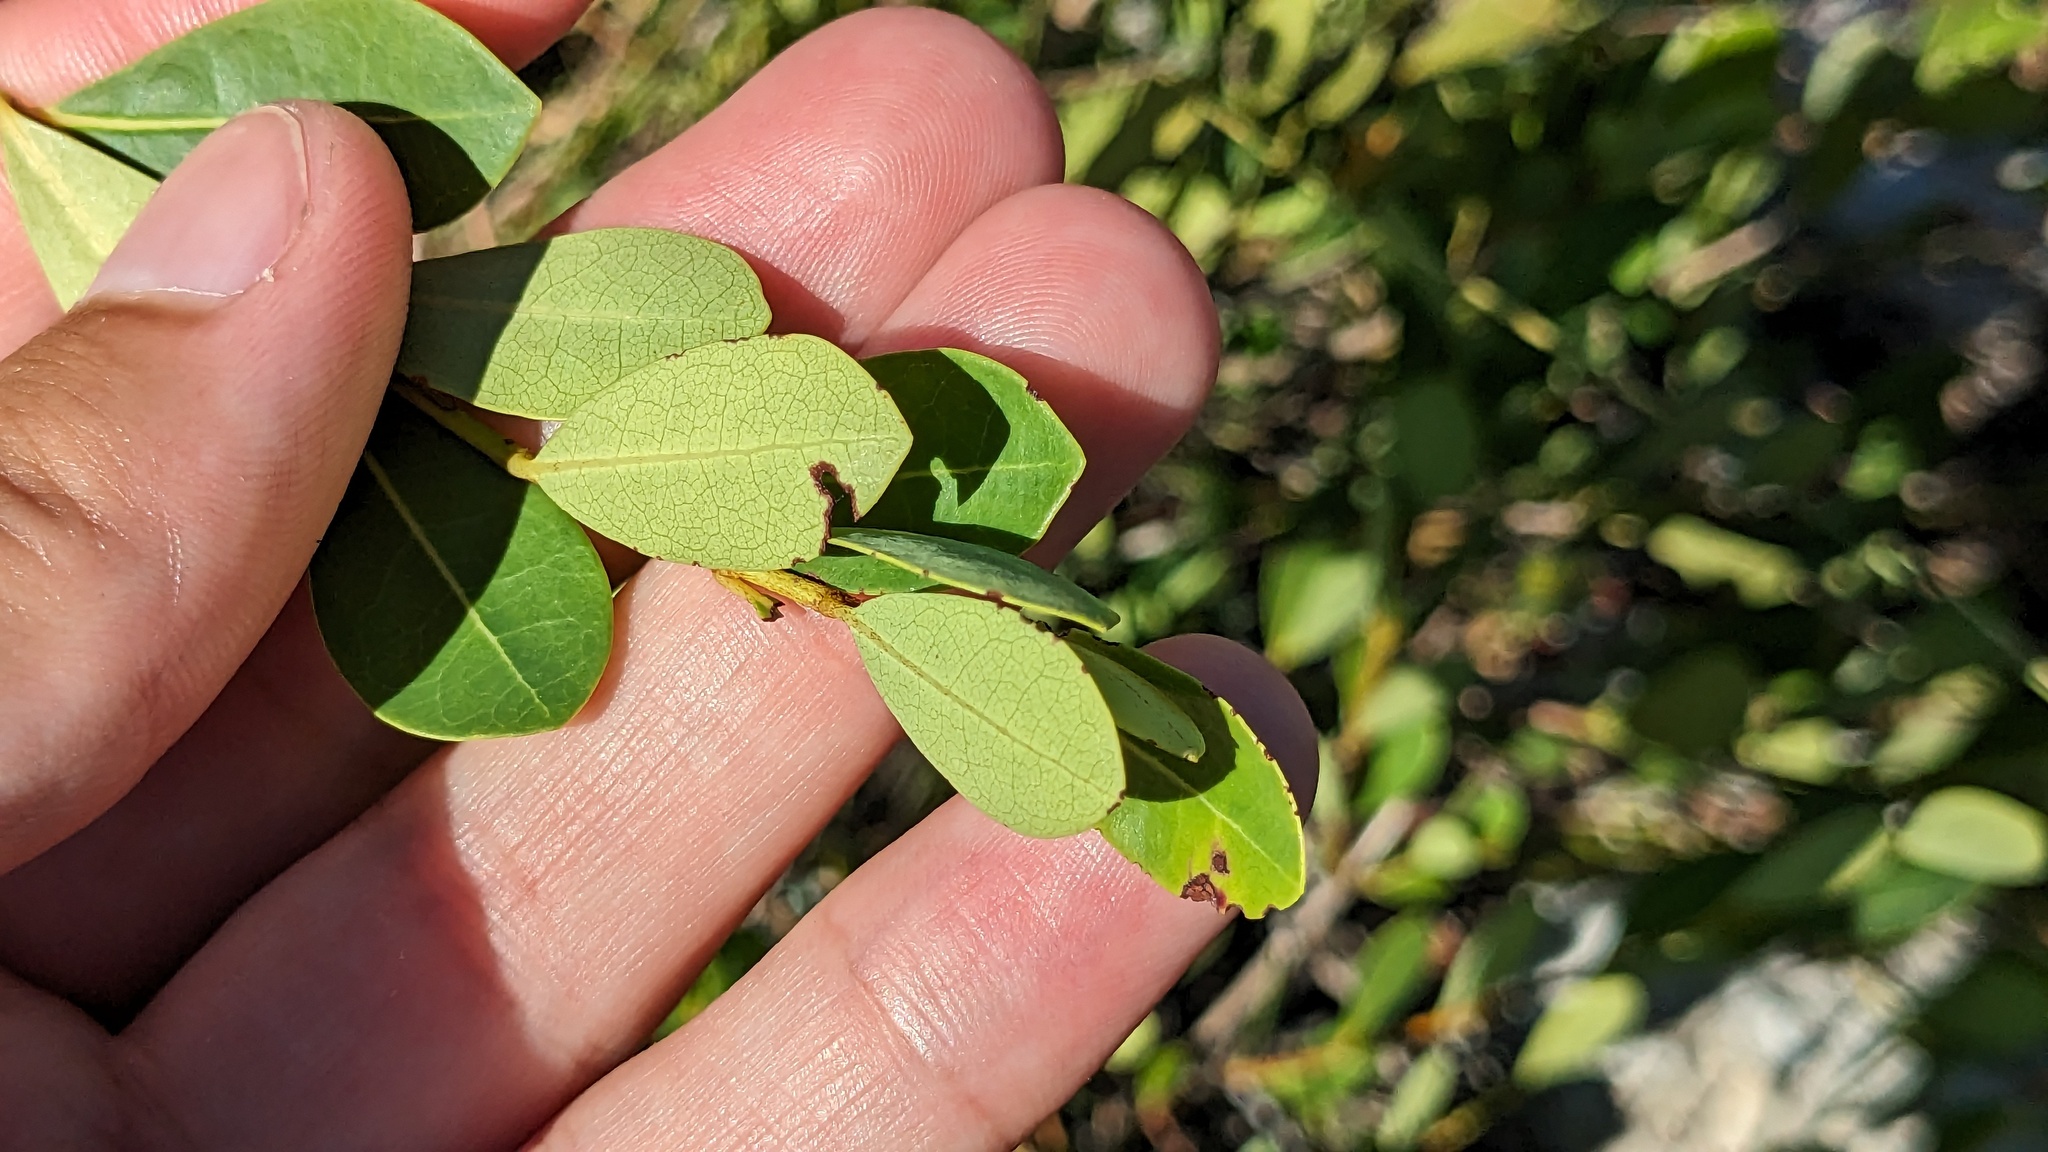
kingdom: Plantae
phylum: Tracheophyta
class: Magnoliopsida
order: Malpighiales
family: Malpighiaceae
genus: Byrsonima
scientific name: Byrsonima lucida
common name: Clam-cherry
